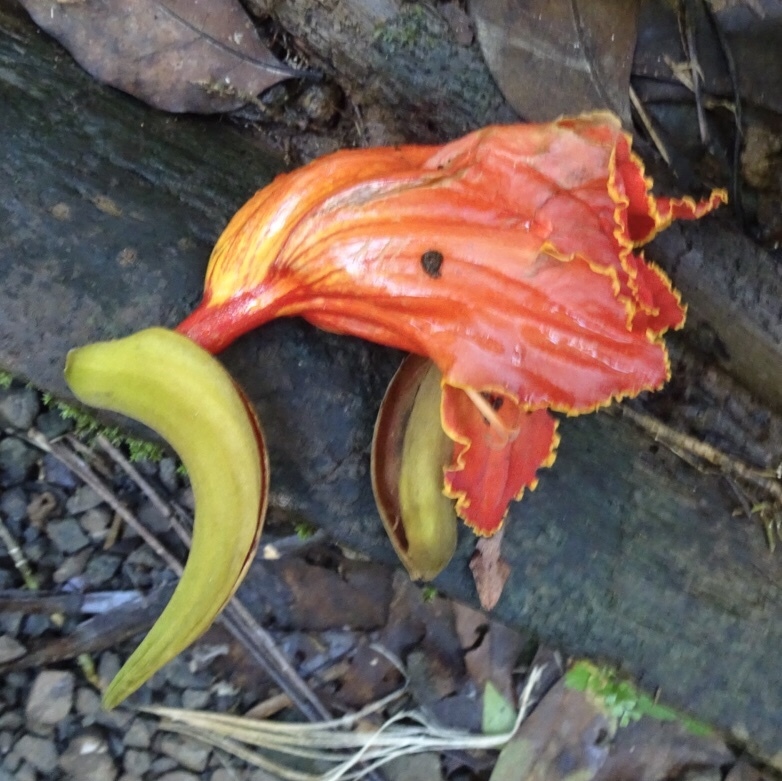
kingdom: Plantae
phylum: Tracheophyta
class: Magnoliopsida
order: Lamiales
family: Bignoniaceae
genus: Spathodea
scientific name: Spathodea campanulata
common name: African tuliptree
